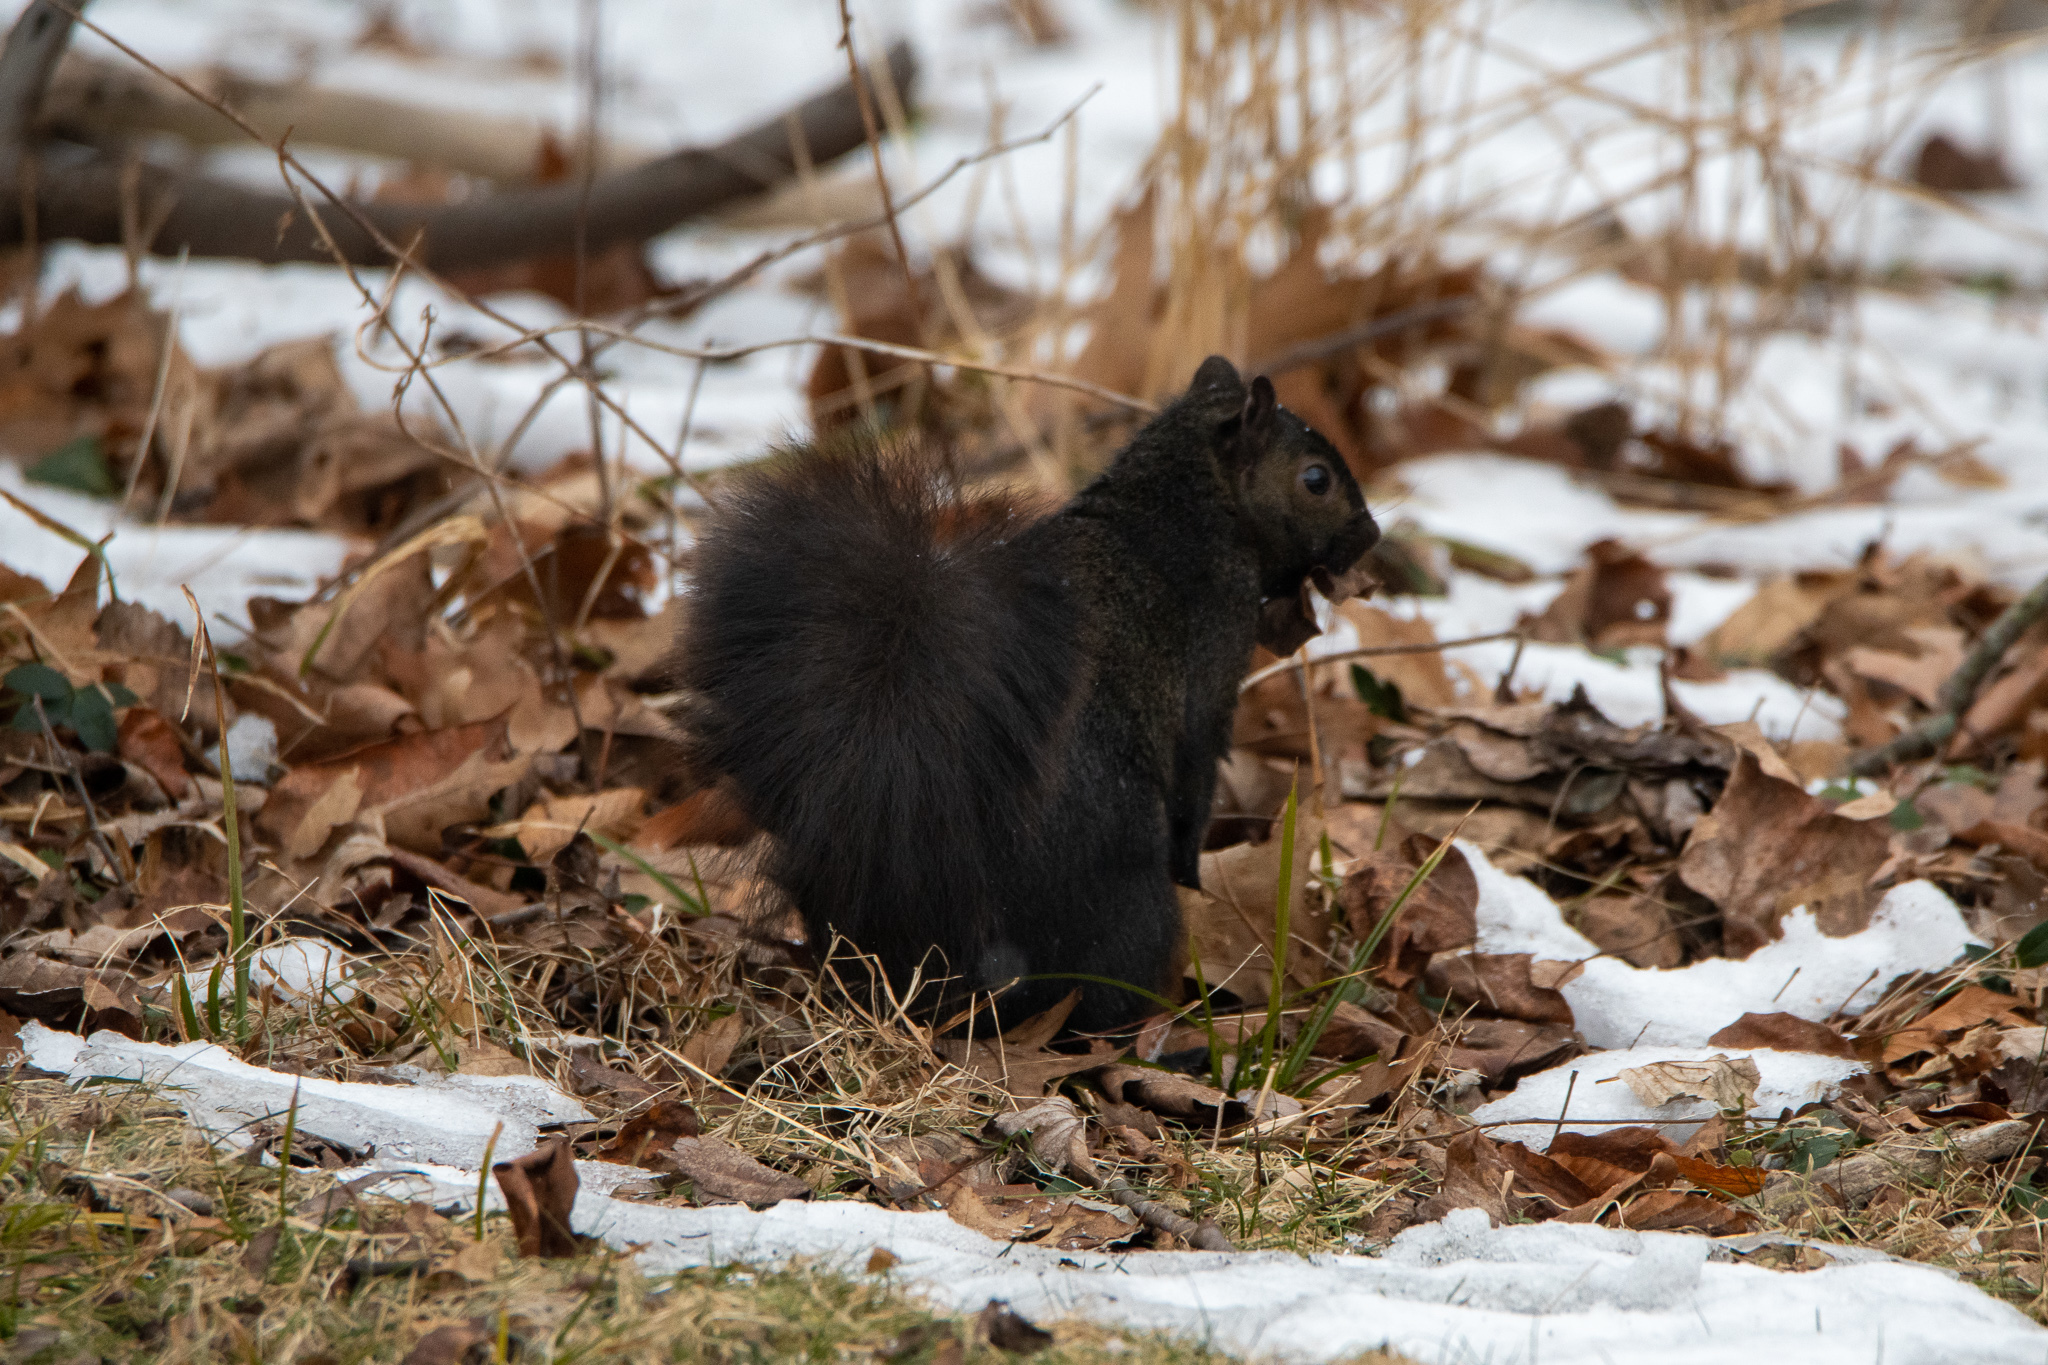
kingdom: Animalia
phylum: Chordata
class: Mammalia
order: Rodentia
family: Sciuridae
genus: Sciurus
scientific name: Sciurus carolinensis
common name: Eastern gray squirrel
